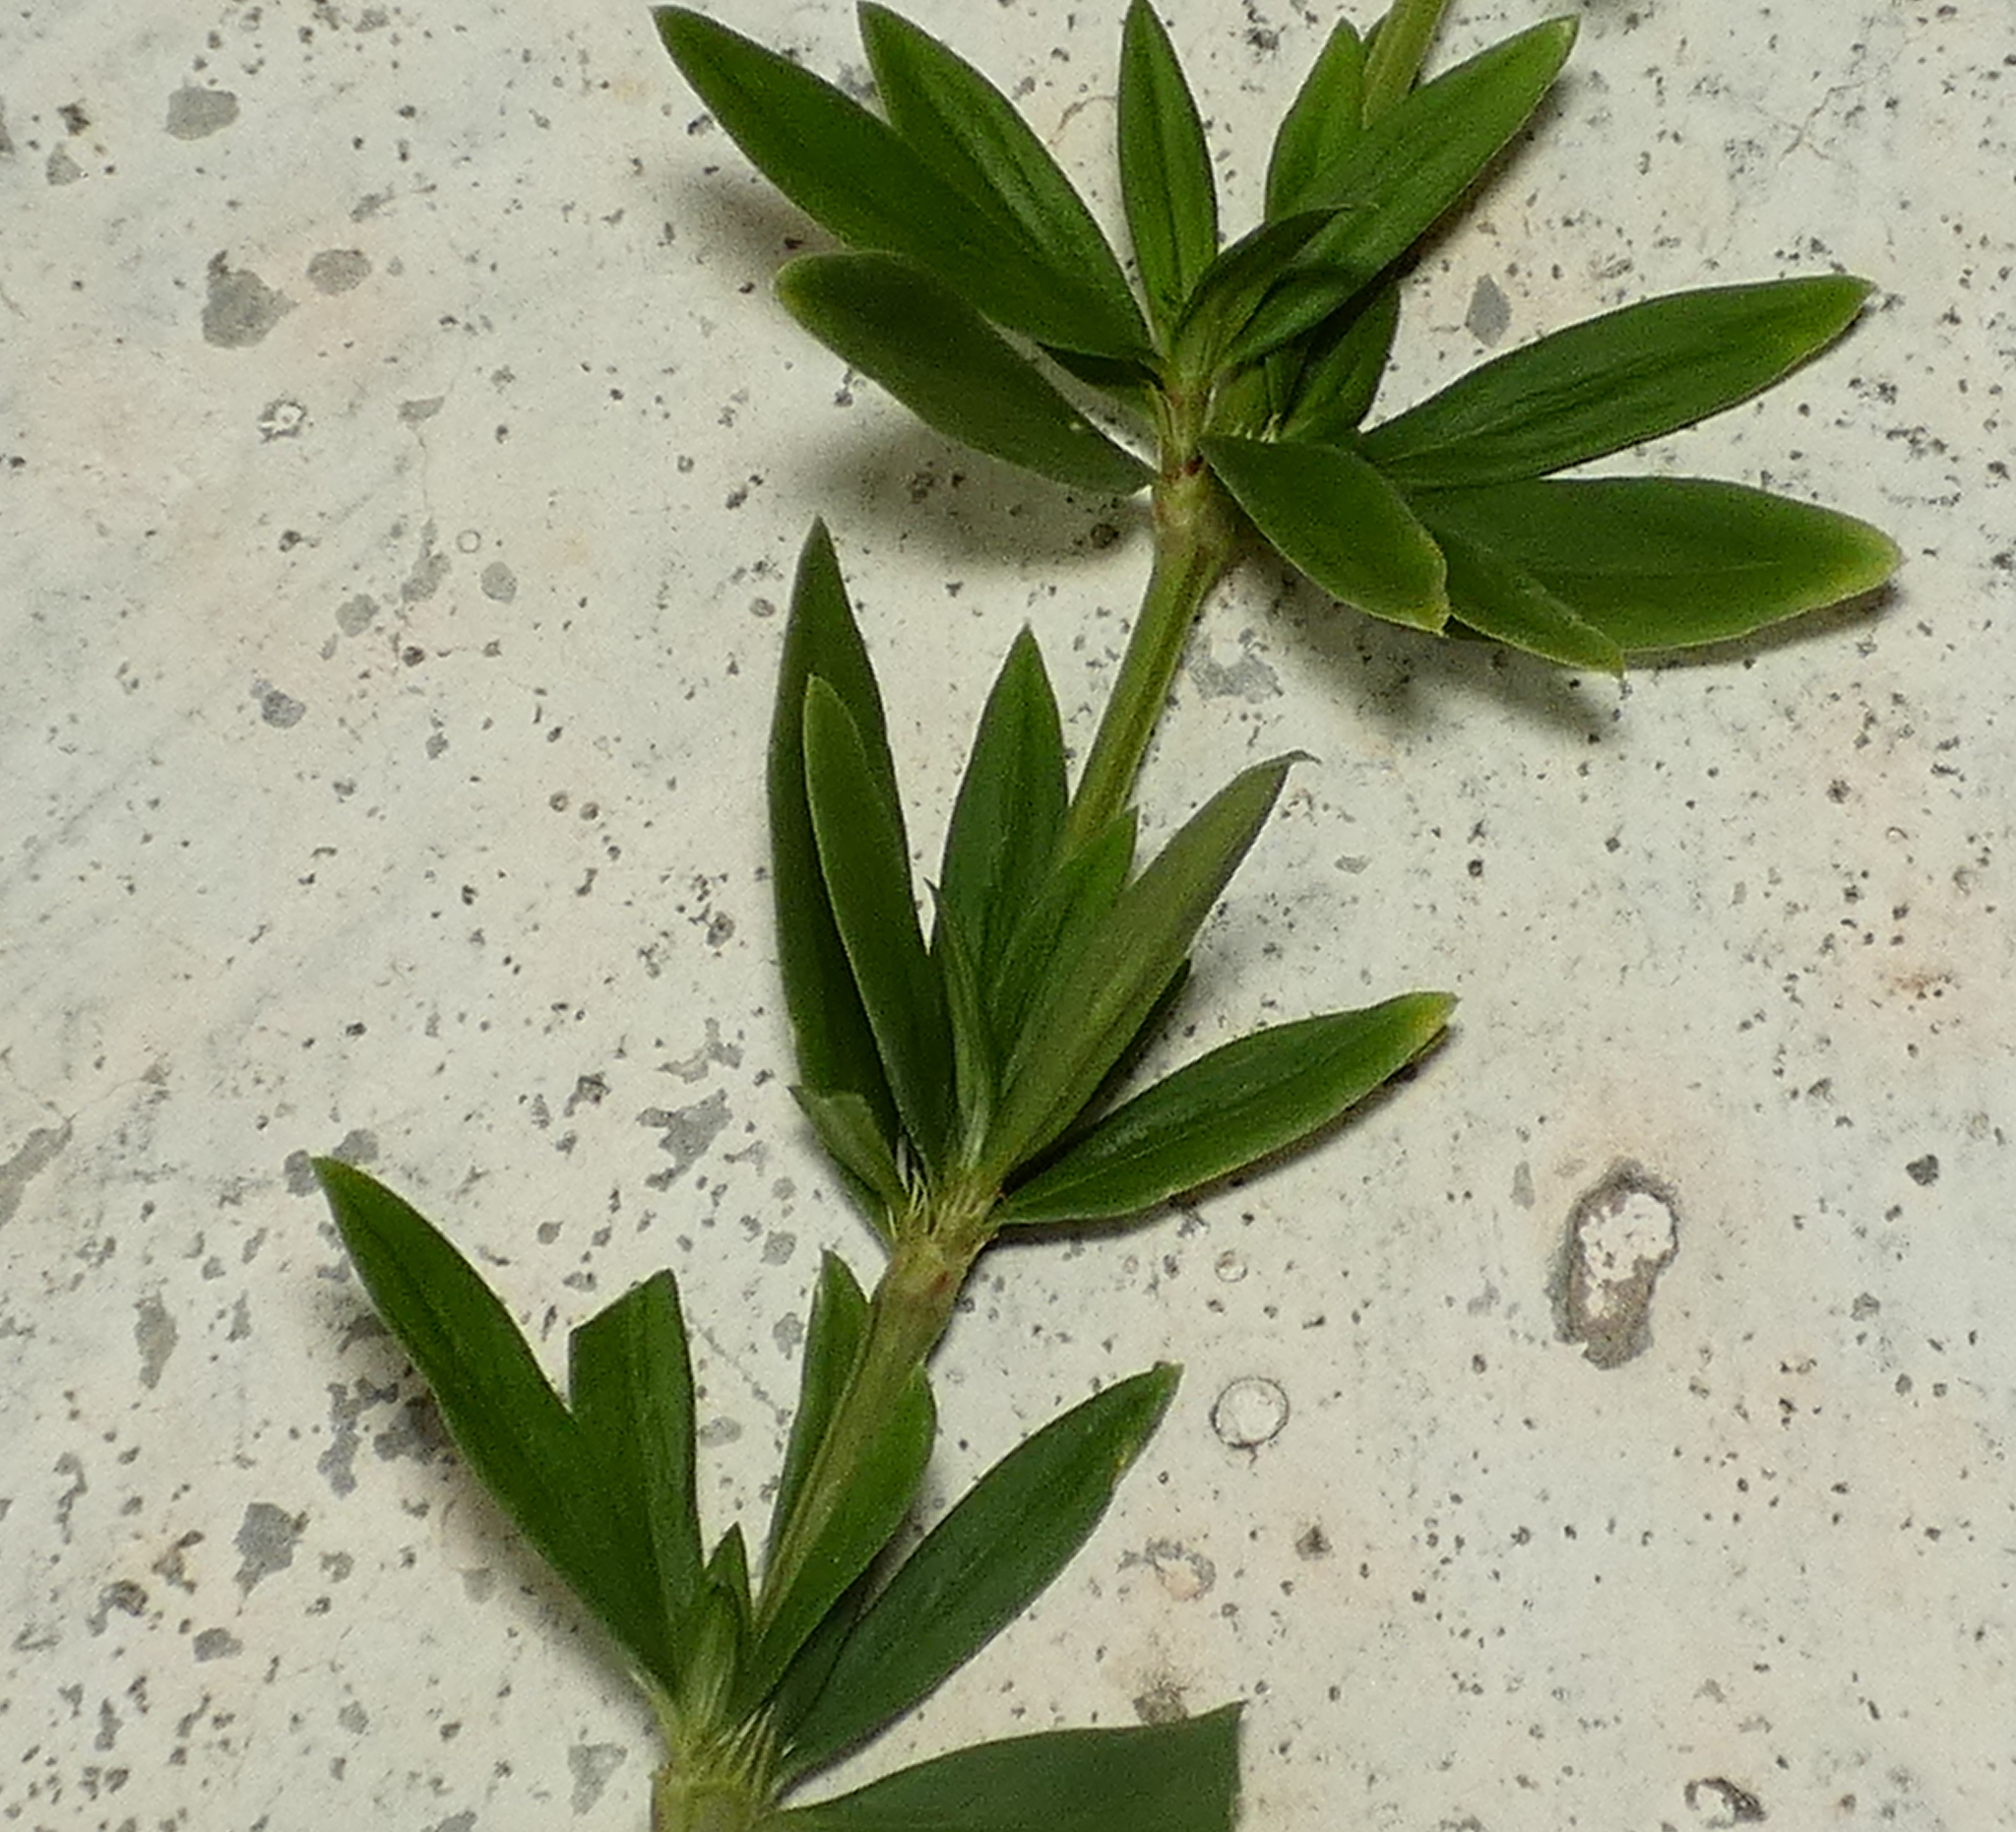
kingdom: Plantae
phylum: Tracheophyta
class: Magnoliopsida
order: Gentianales
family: Rubiaceae
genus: Spermacoce
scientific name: Spermacoce verticillata
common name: Shrubby false buttonweed
